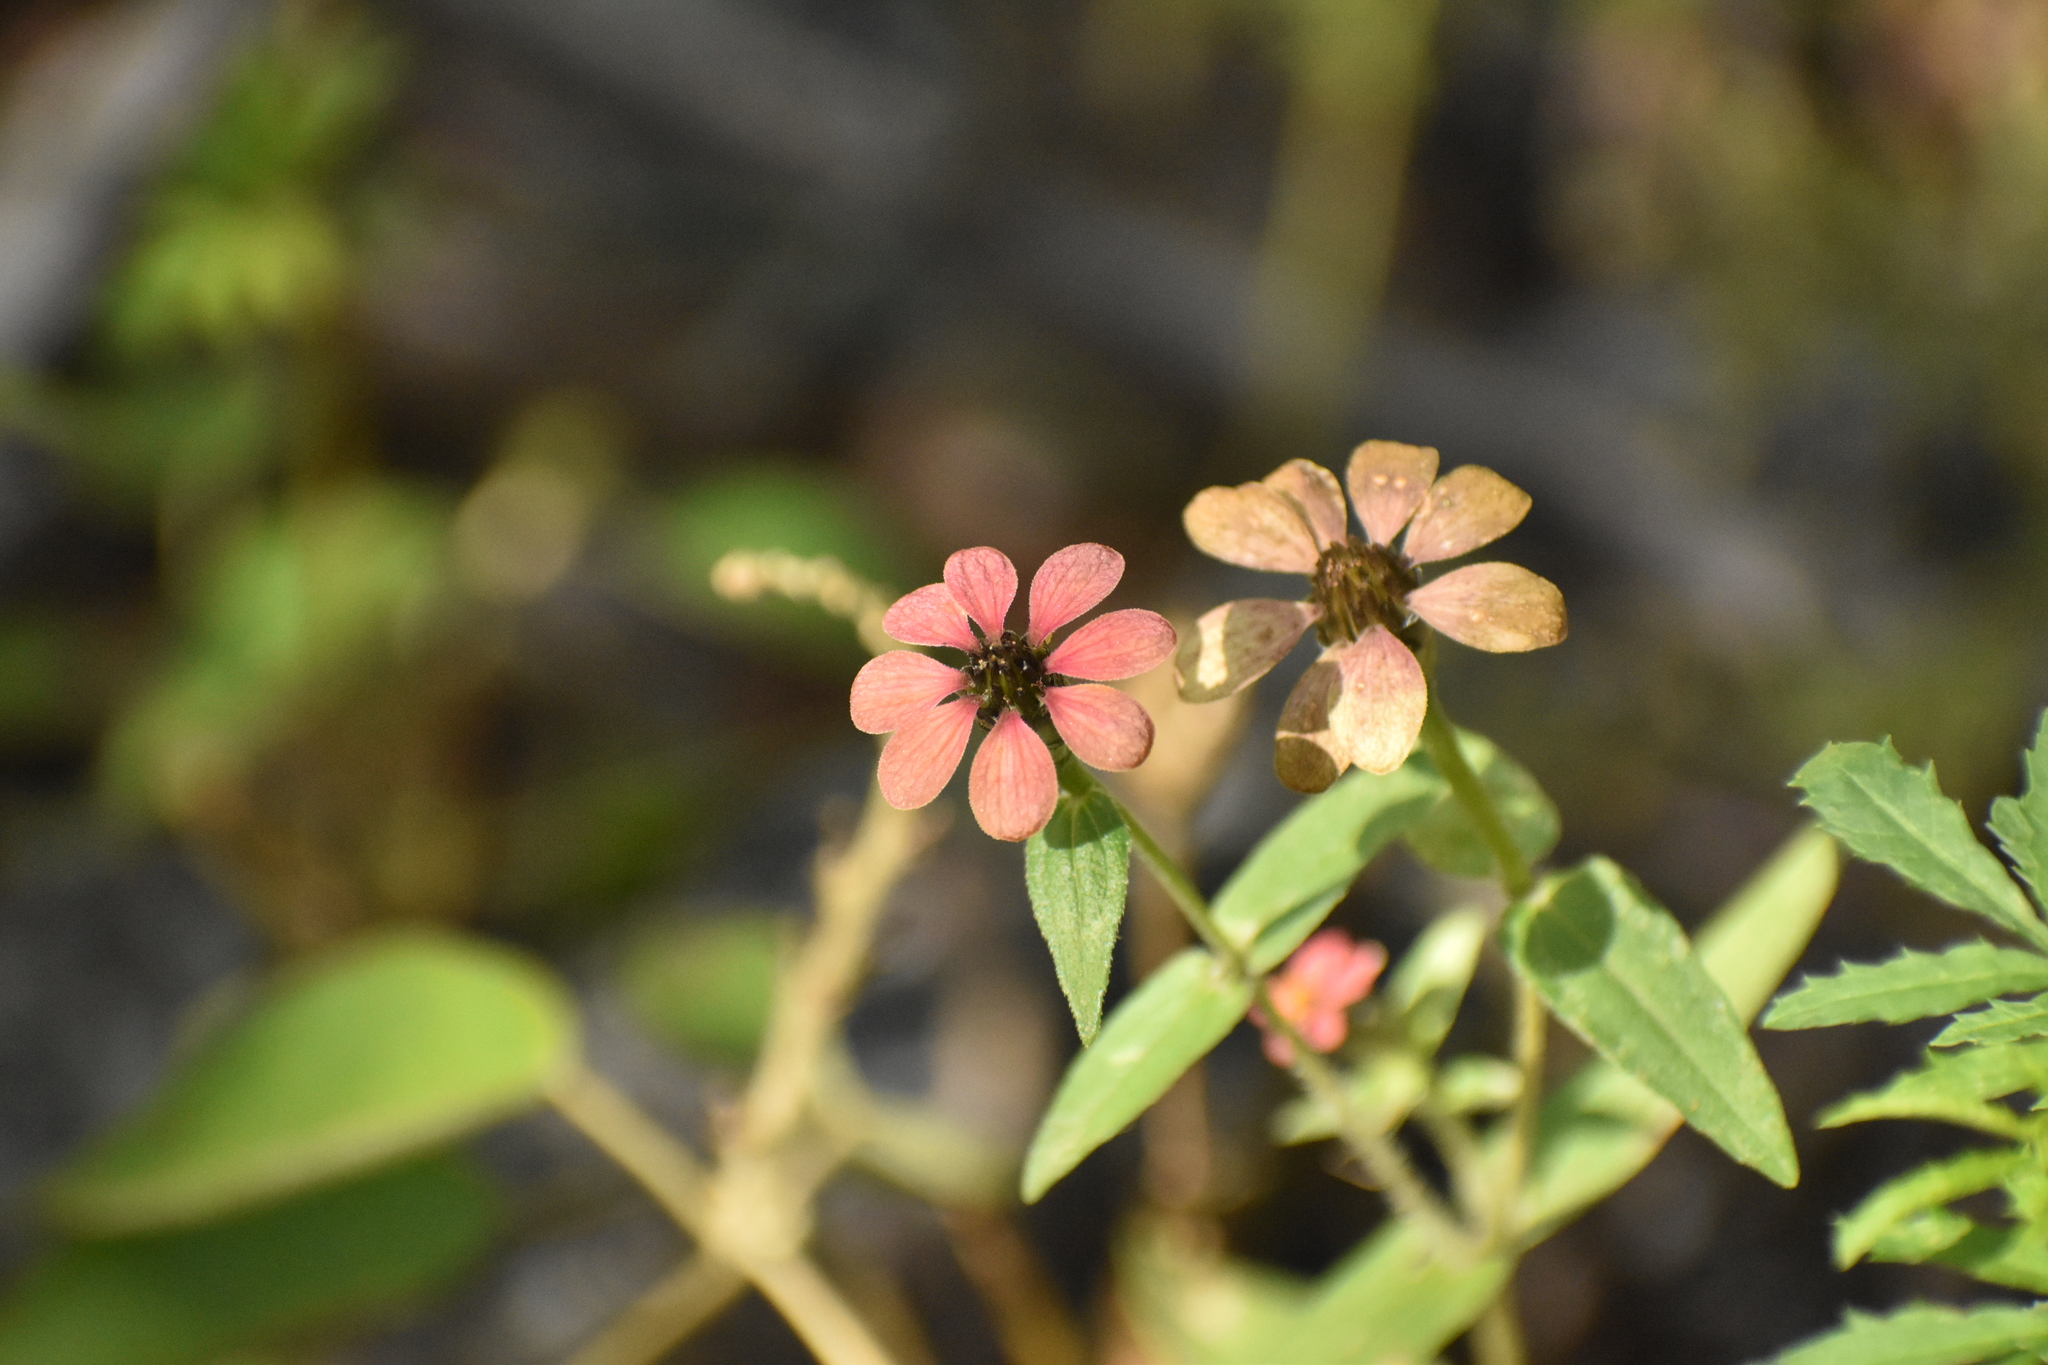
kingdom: Plantae
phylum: Tracheophyta
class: Magnoliopsida
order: Asterales
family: Asteraceae
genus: Zinnia
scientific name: Zinnia peruviana
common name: Peruvian zinnia
